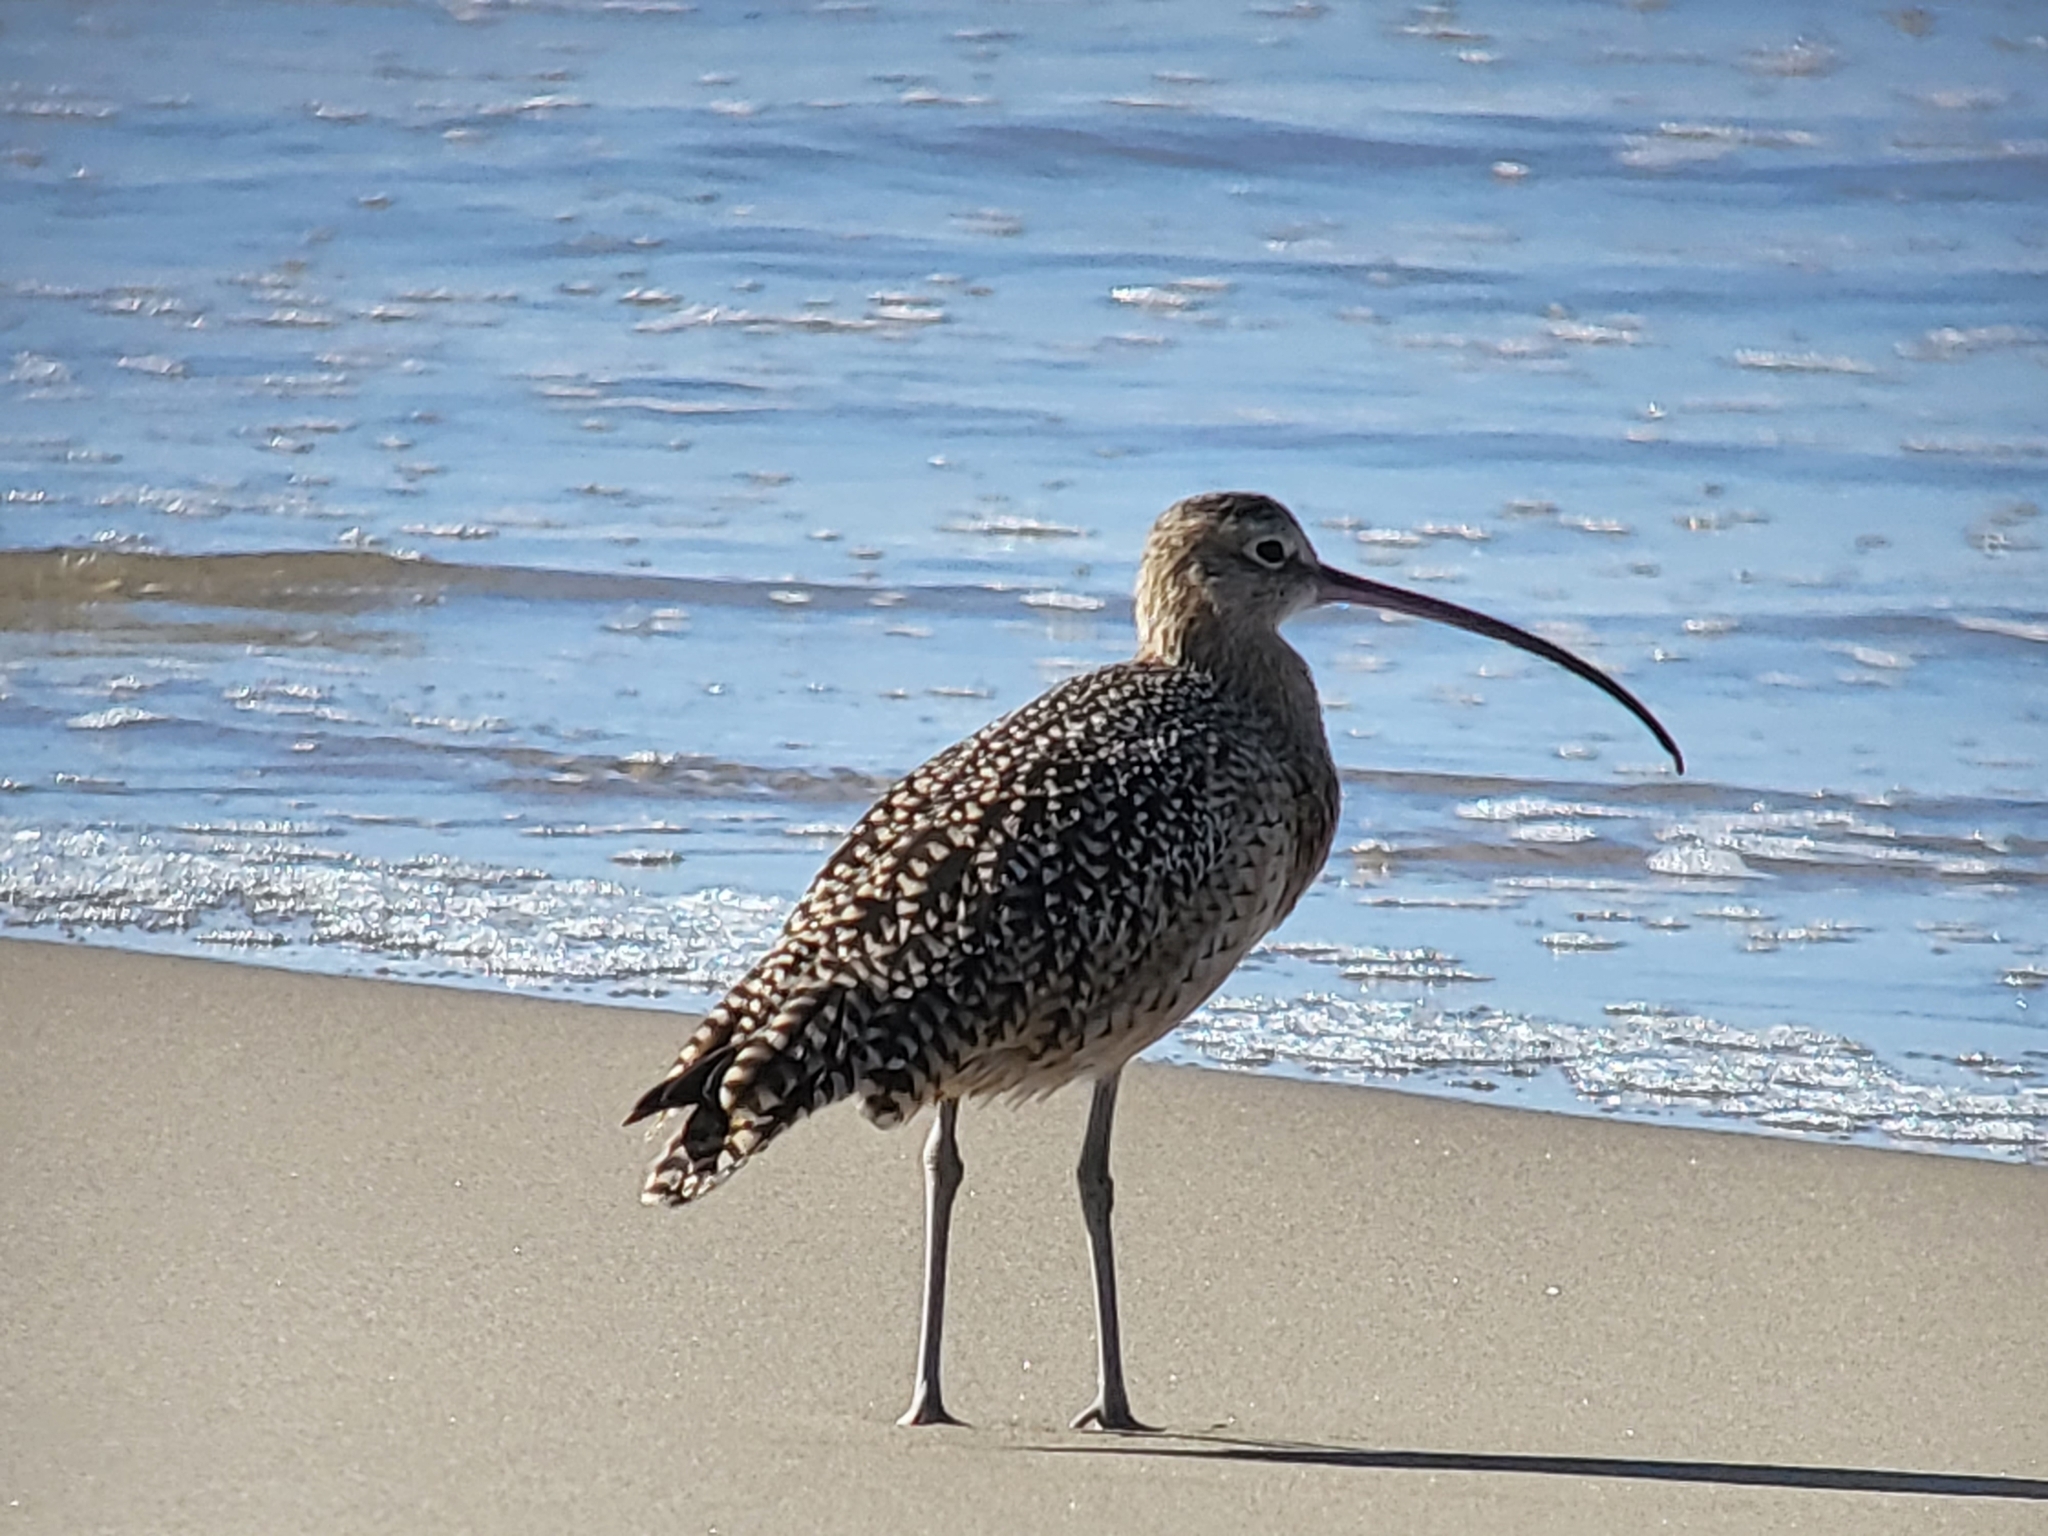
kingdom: Animalia
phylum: Chordata
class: Aves
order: Charadriiformes
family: Scolopacidae
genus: Numenius
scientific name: Numenius americanus
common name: Long-billed curlew
